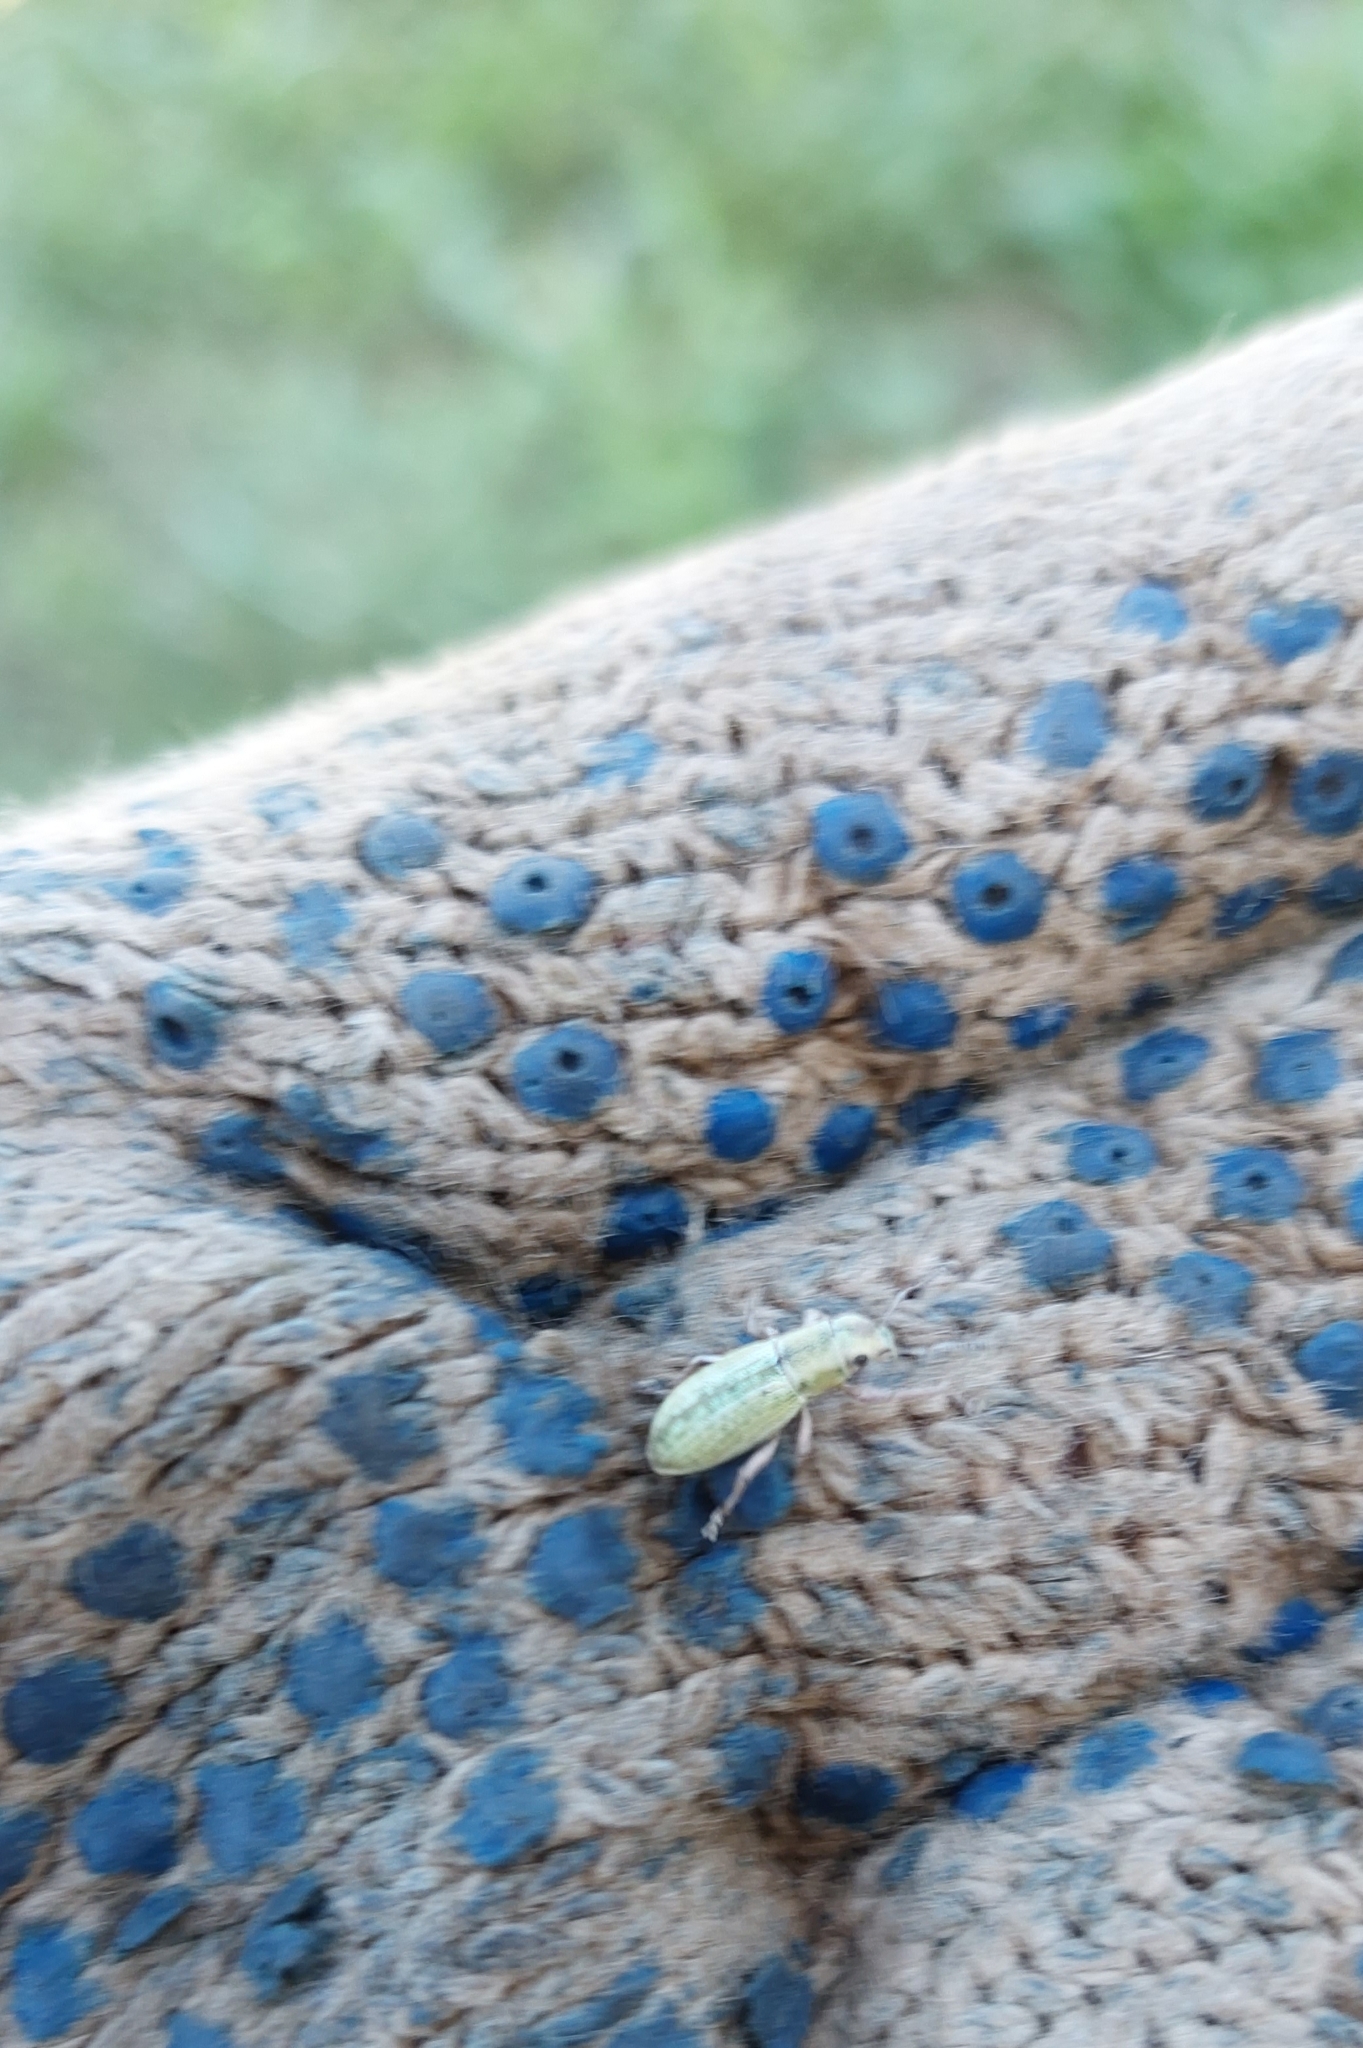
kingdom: Animalia
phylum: Arthropoda
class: Insecta
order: Coleoptera
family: Curculionidae
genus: Aramigus
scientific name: Aramigus tessellatus
